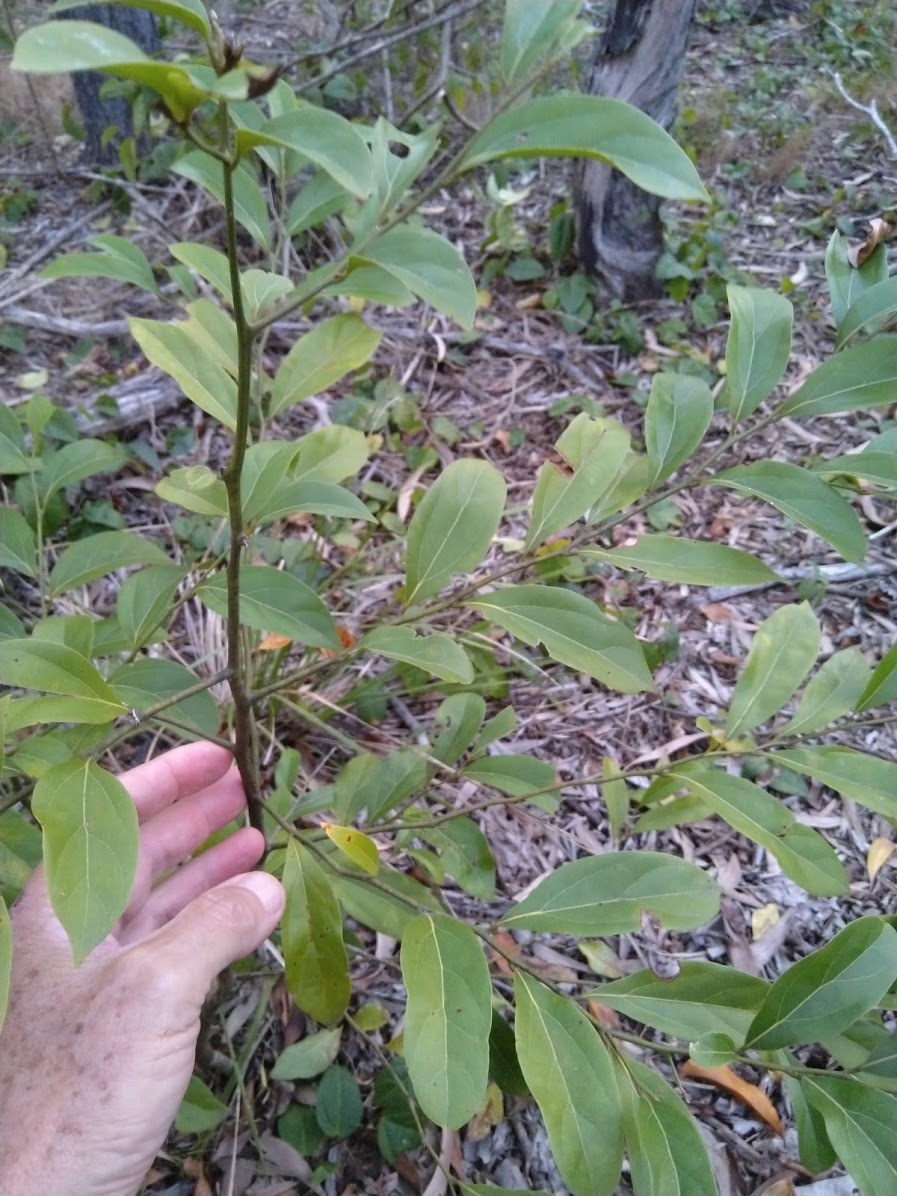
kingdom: Plantae
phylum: Tracheophyta
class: Magnoliopsida
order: Laurales
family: Lauraceae
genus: Cryptocarya
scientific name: Cryptocarya triplinervis
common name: Three-vein cryptocarya
